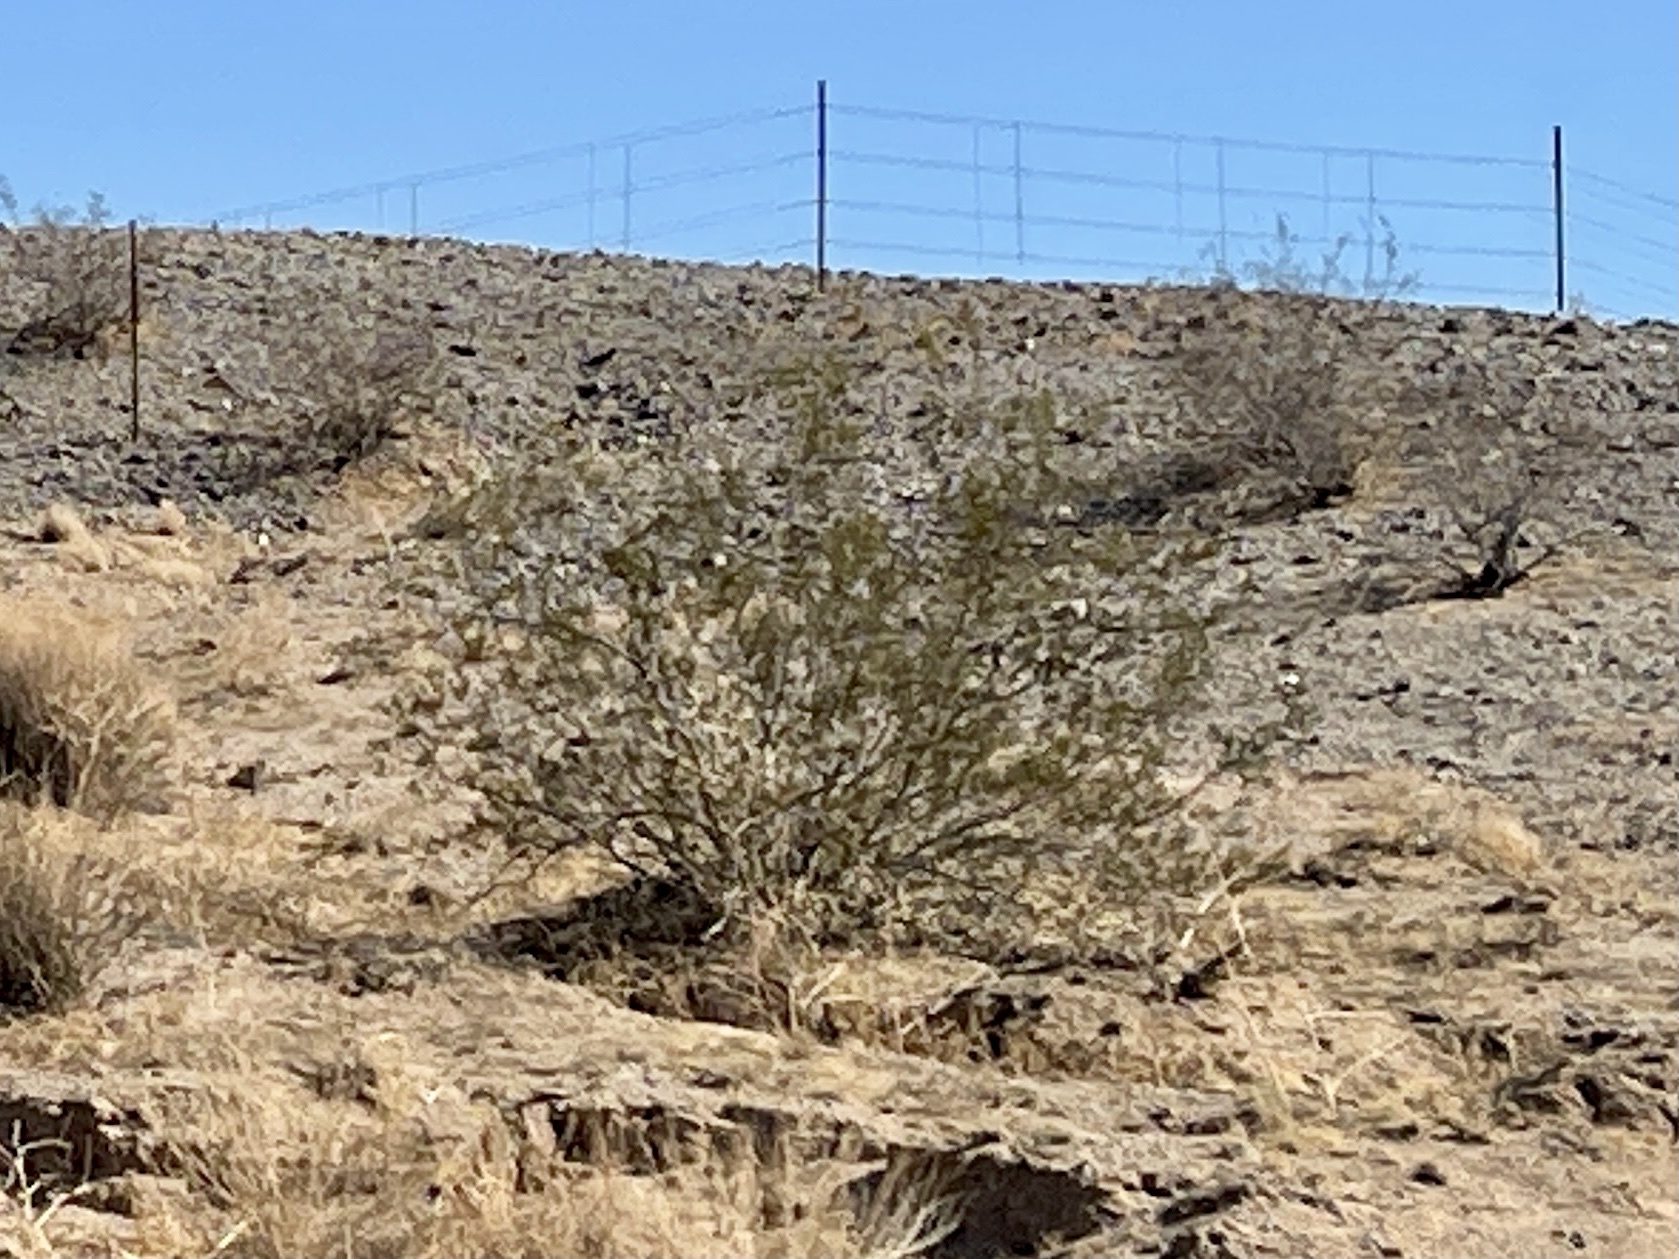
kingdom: Plantae
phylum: Tracheophyta
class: Magnoliopsida
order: Zygophyllales
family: Zygophyllaceae
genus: Larrea
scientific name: Larrea tridentata
